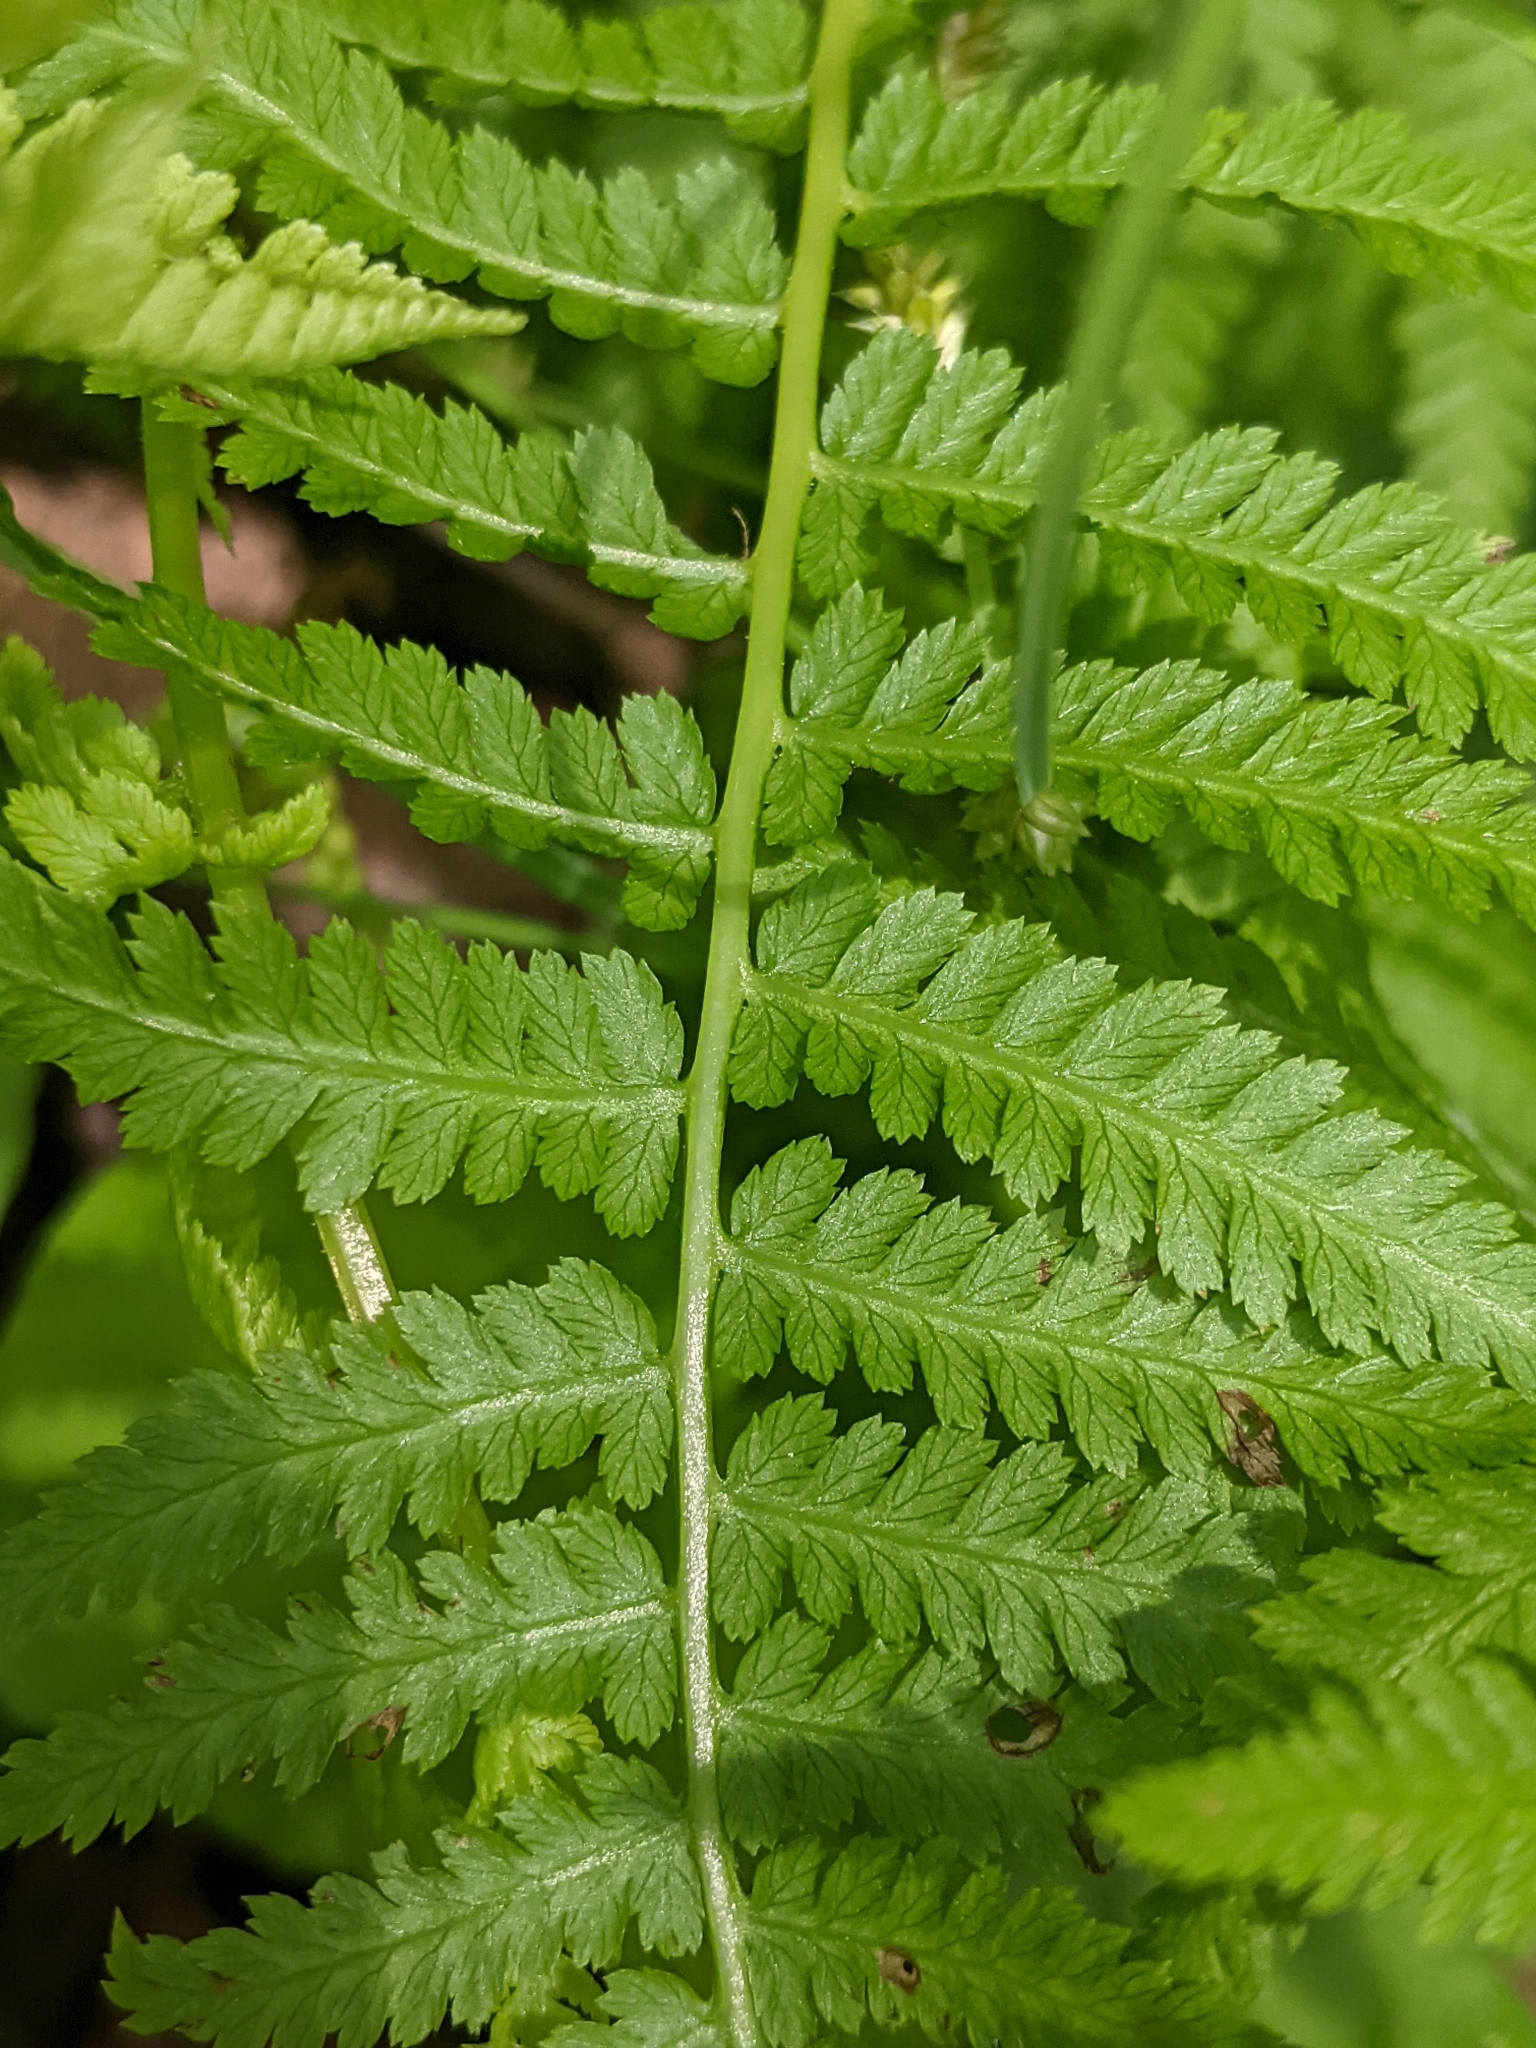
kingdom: Plantae
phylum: Tracheophyta
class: Polypodiopsida
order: Polypodiales
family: Athyriaceae
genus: Athyrium
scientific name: Athyrium angustum
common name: Northern lady fern
